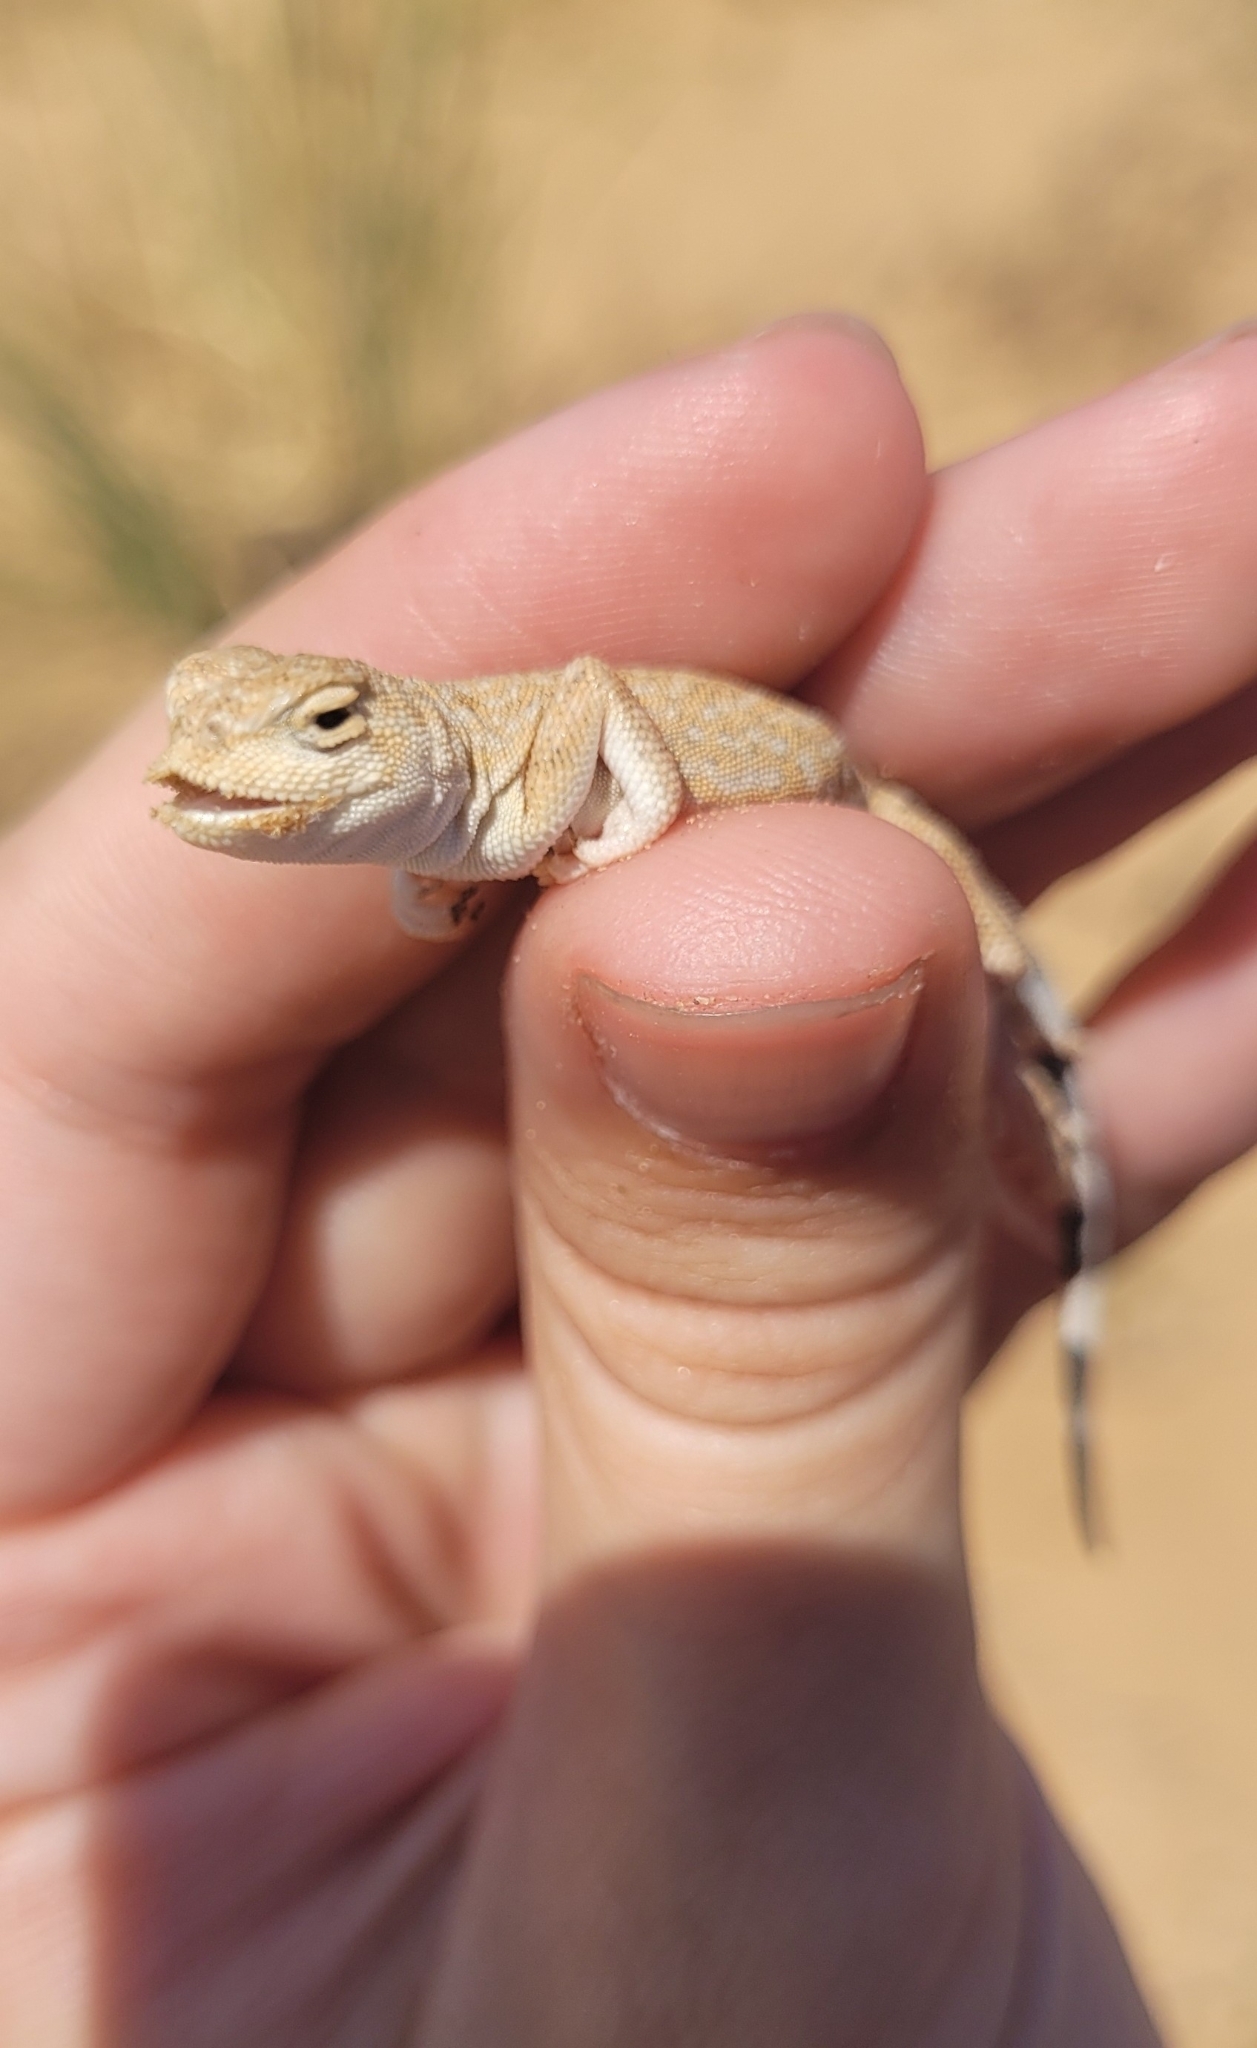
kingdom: Animalia
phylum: Chordata
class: Squamata
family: Agamidae
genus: Phrynocephalus
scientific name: Phrynocephalus guttatus
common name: Spotted toadhead agama
